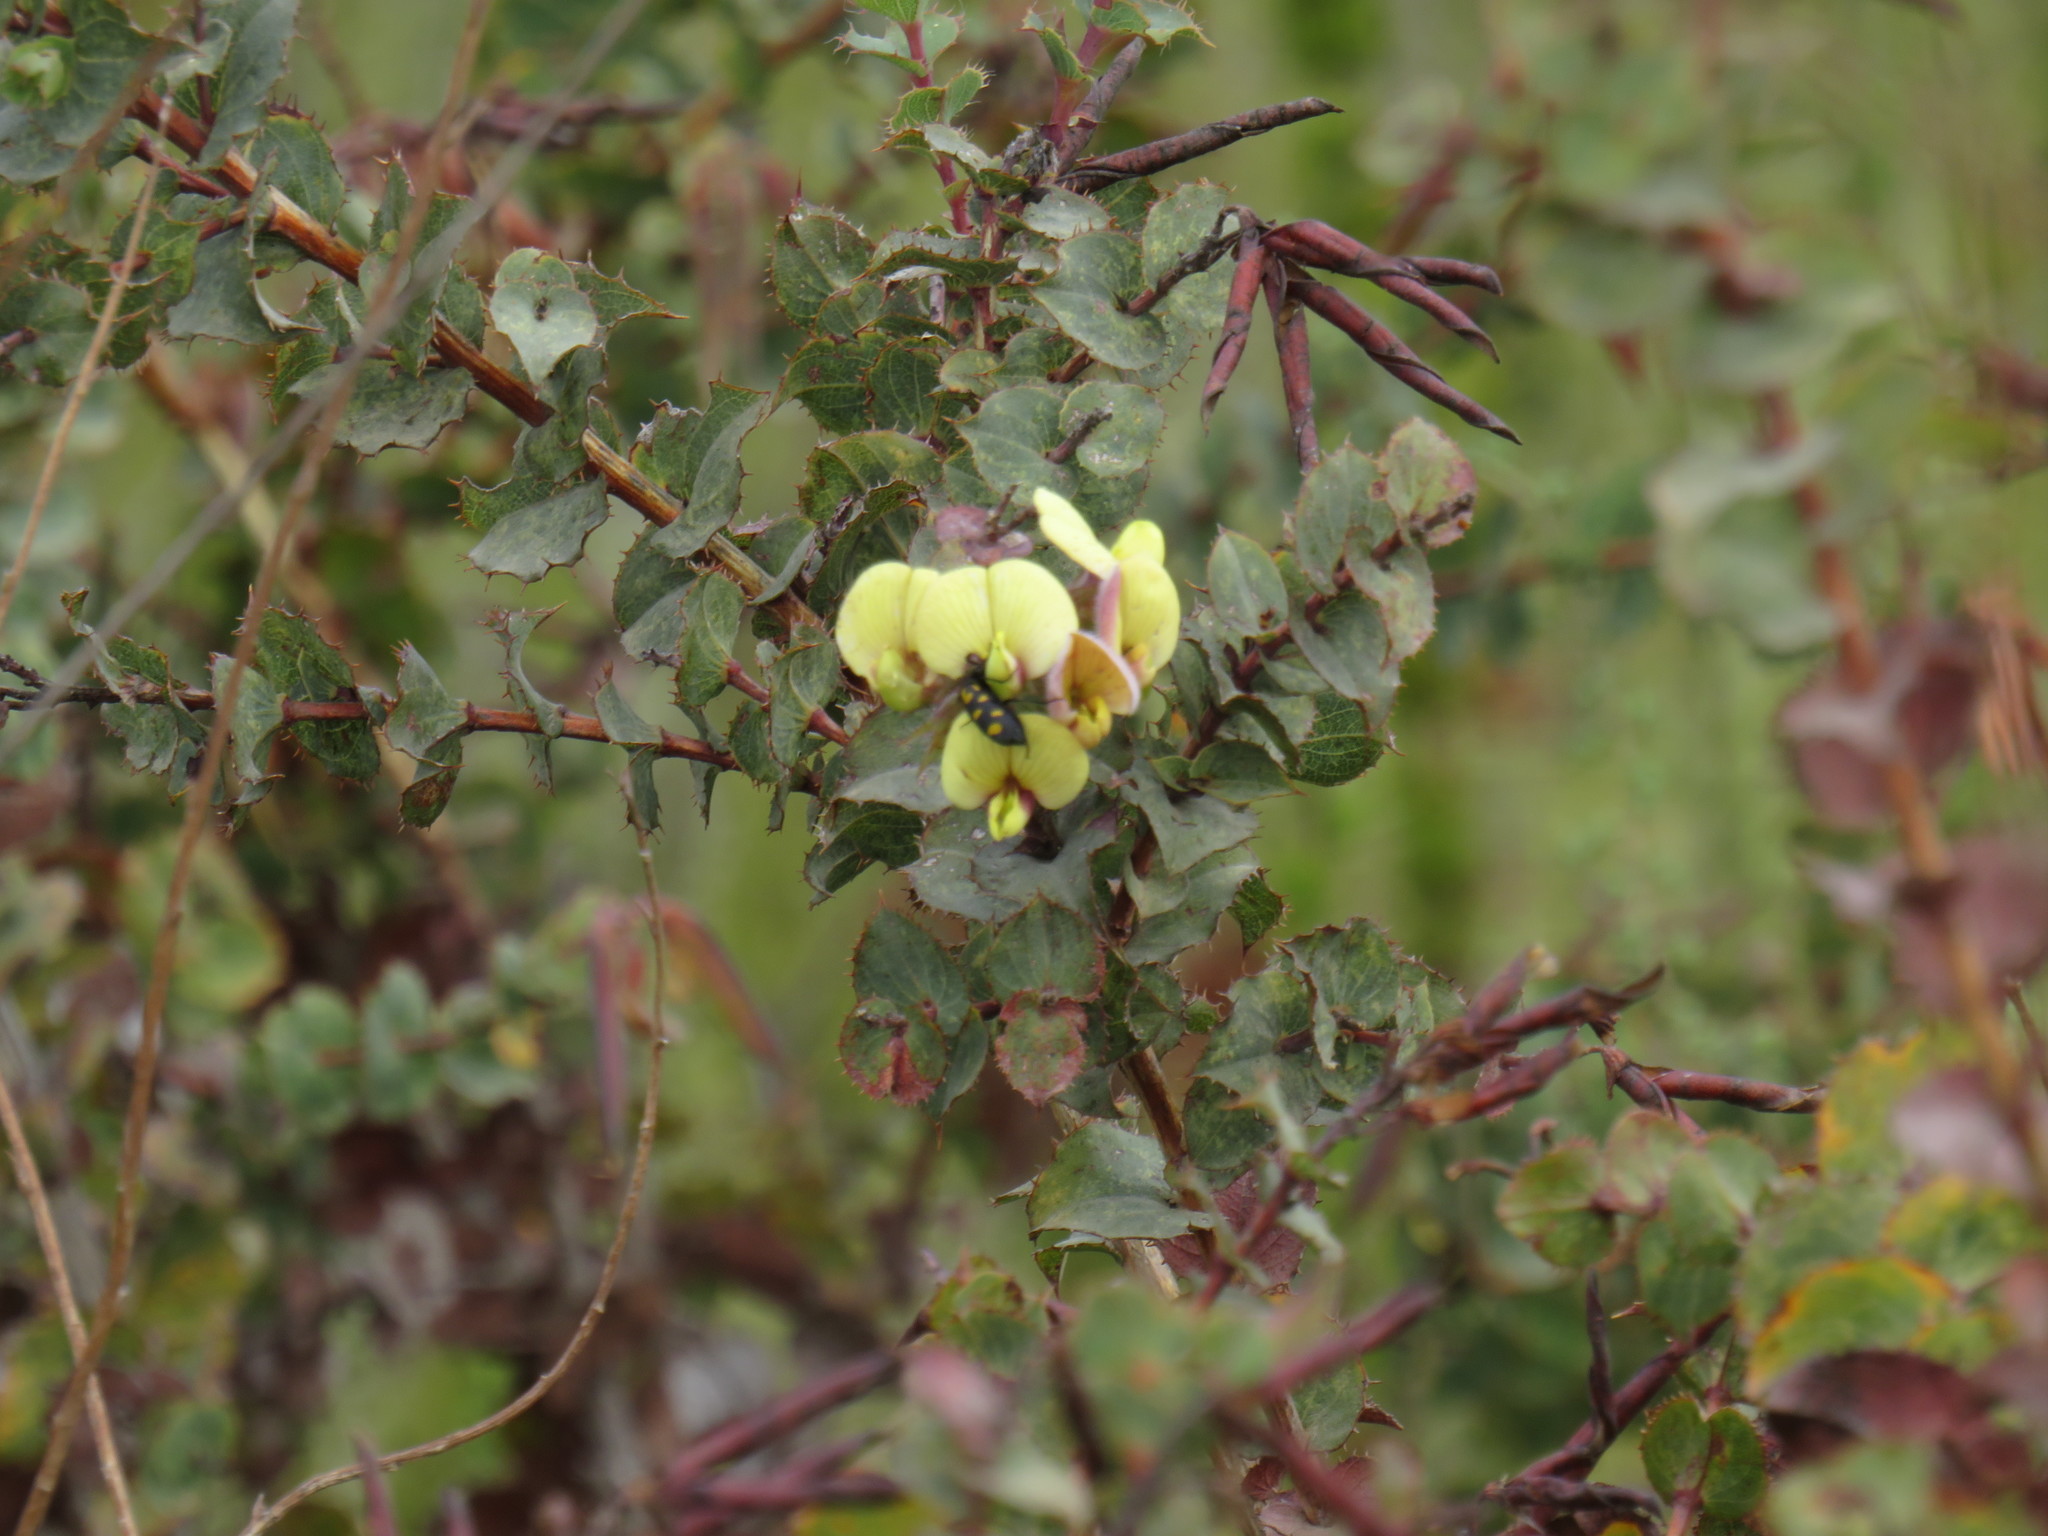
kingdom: Plantae
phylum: Tracheophyta
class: Magnoliopsida
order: Fabales
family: Fabaceae
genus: Aspalathus
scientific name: Aspalathus perfoliata
